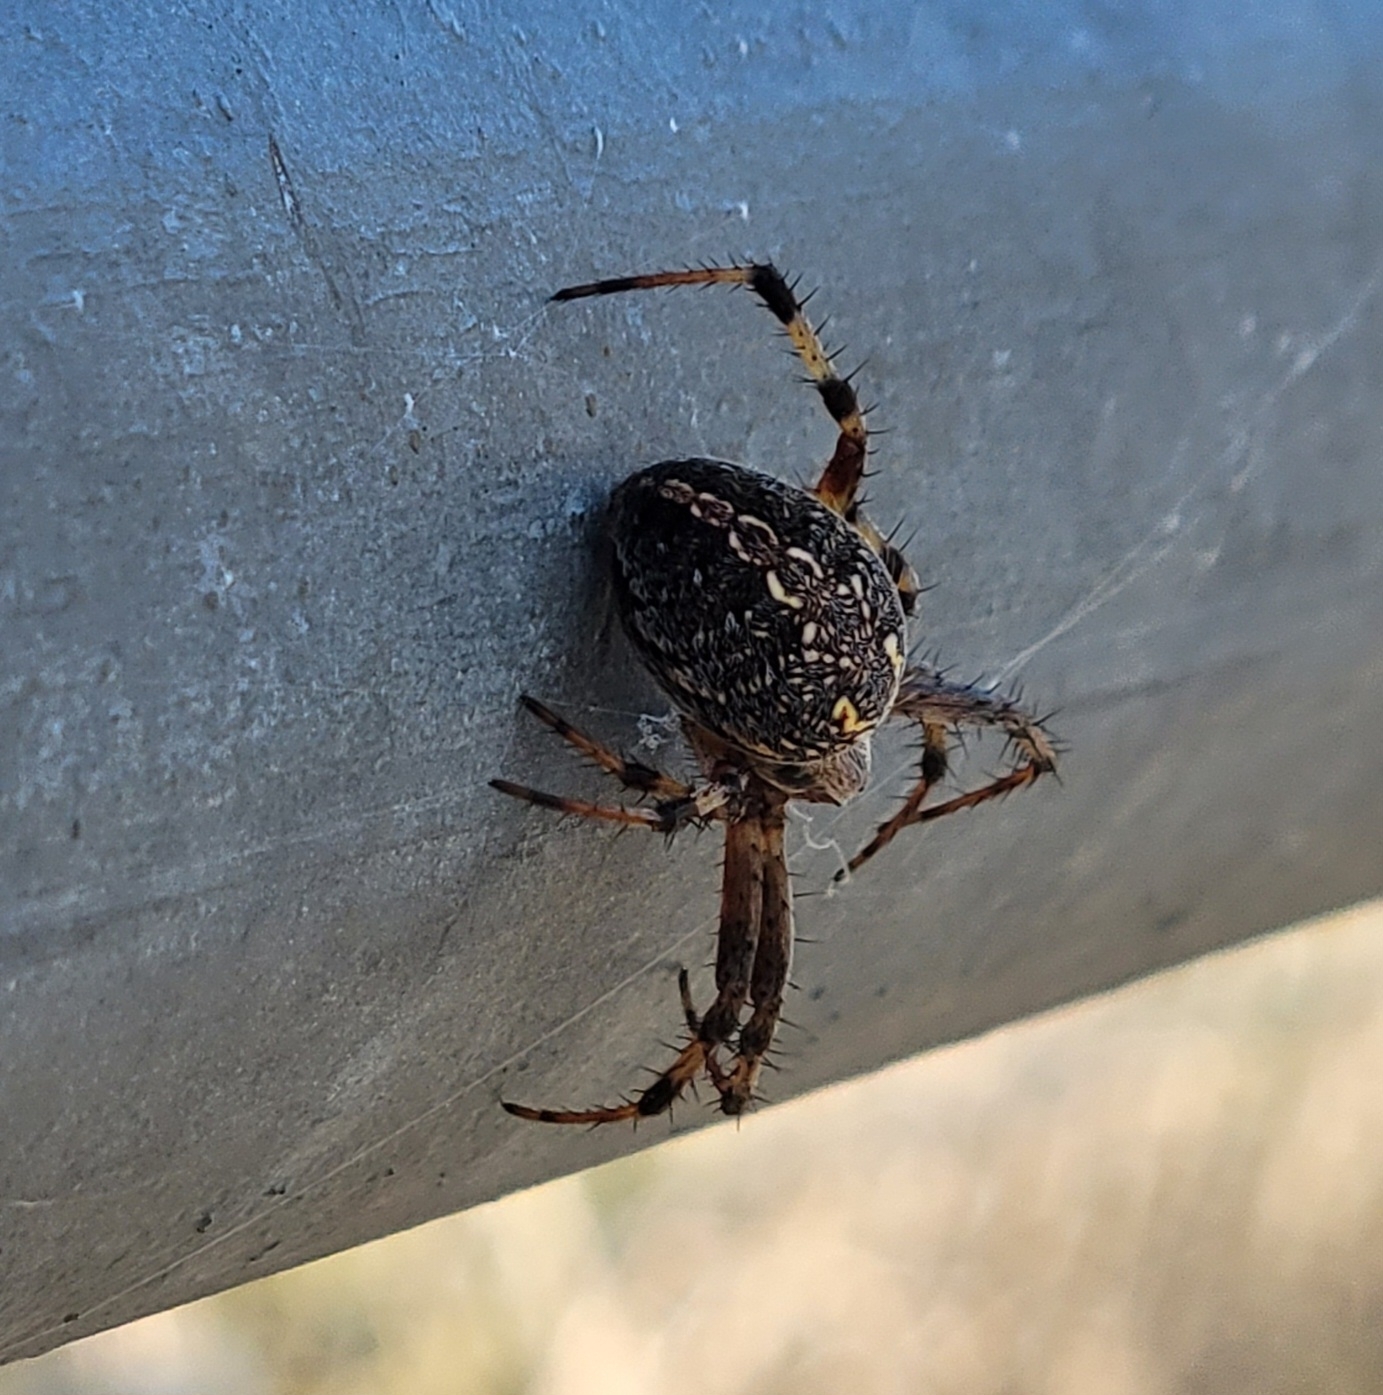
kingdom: Animalia
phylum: Arthropoda
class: Arachnida
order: Araneae
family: Araneidae
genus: Neoscona
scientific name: Neoscona oaxacensis
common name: Orb weavers
